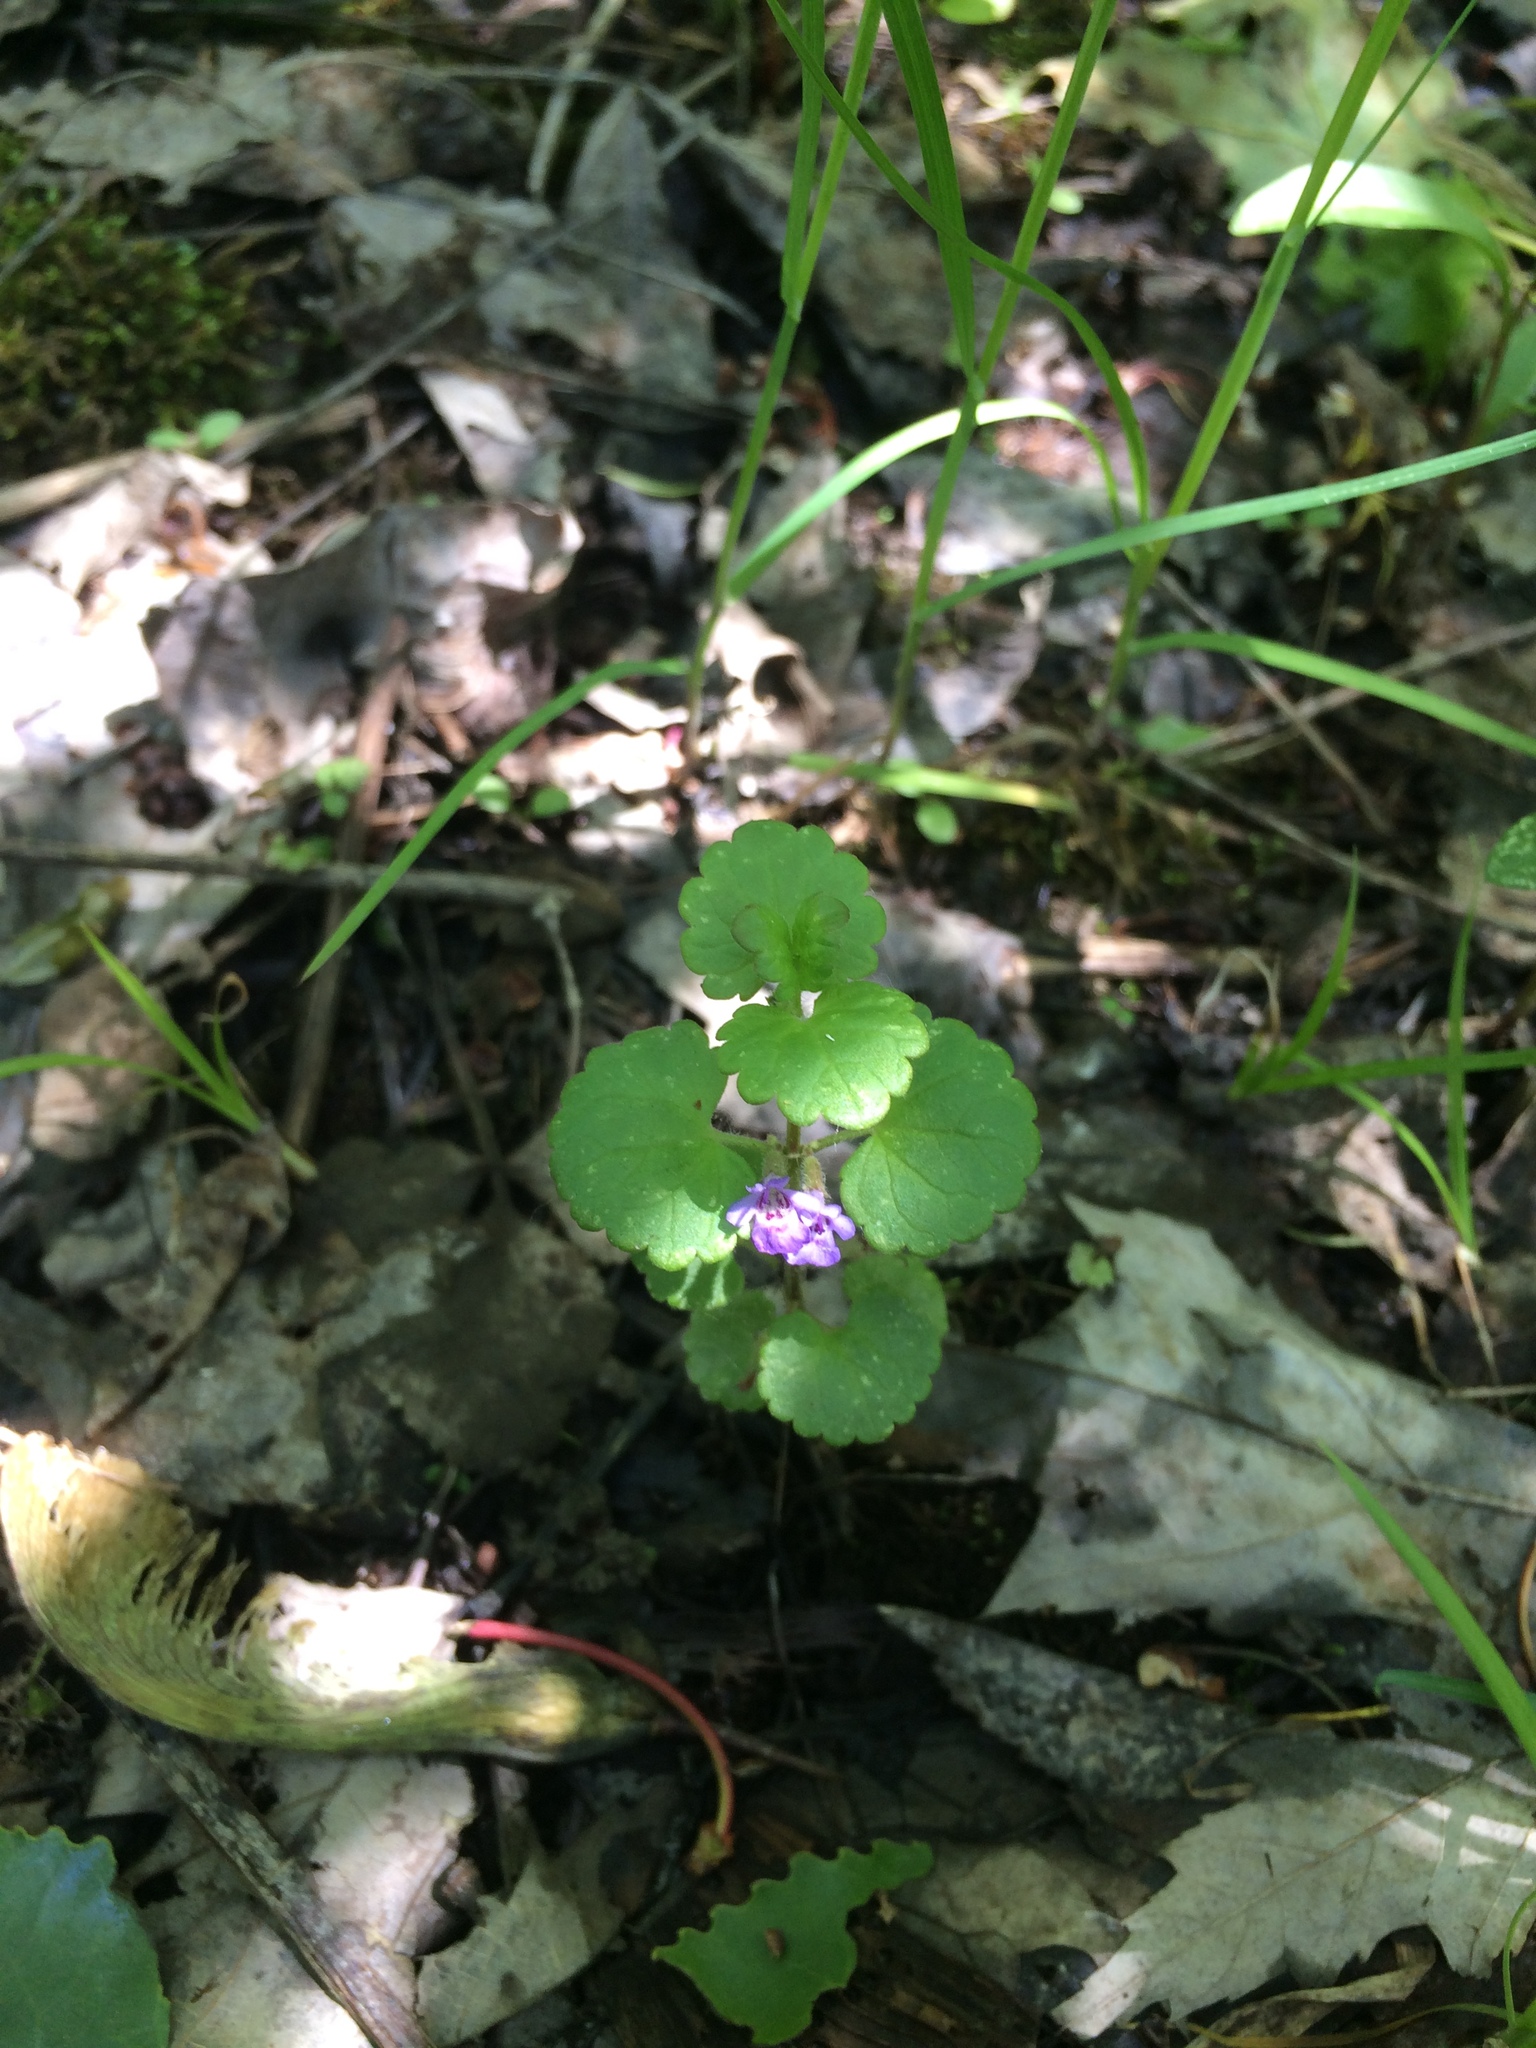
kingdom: Plantae
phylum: Tracheophyta
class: Magnoliopsida
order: Lamiales
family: Lamiaceae
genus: Glechoma
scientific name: Glechoma hederacea
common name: Ground ivy
